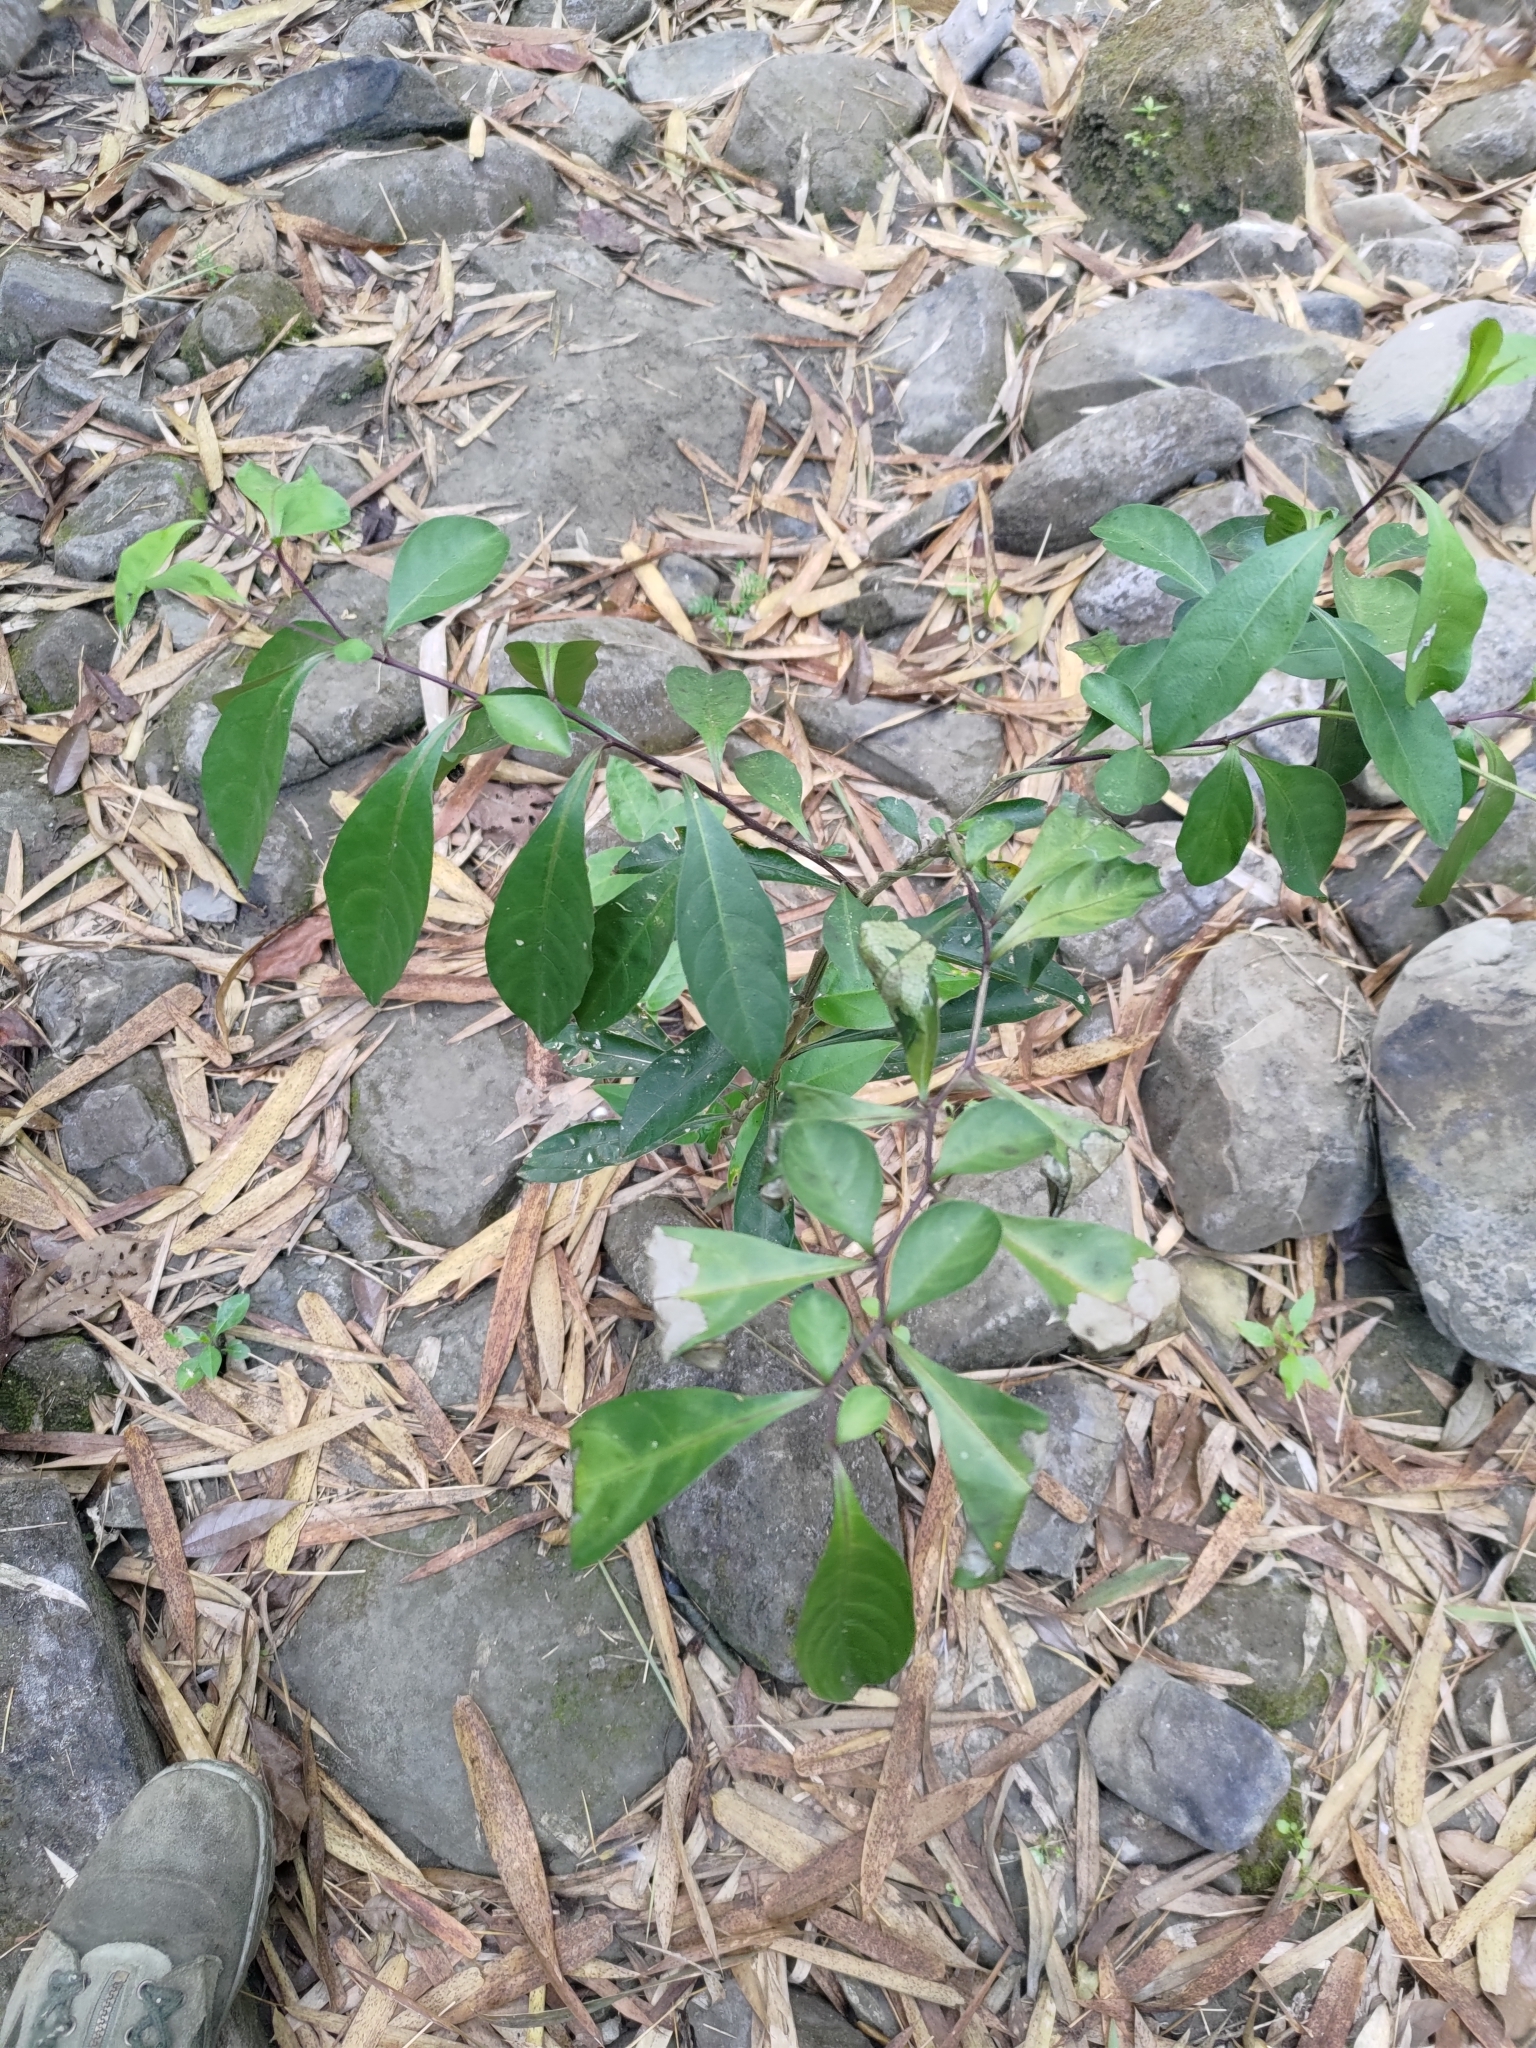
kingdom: Plantae
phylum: Tracheophyta
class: Magnoliopsida
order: Solanales
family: Solanaceae
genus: Solanum
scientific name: Solanum diphyllum
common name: Twoleaf nightshade
